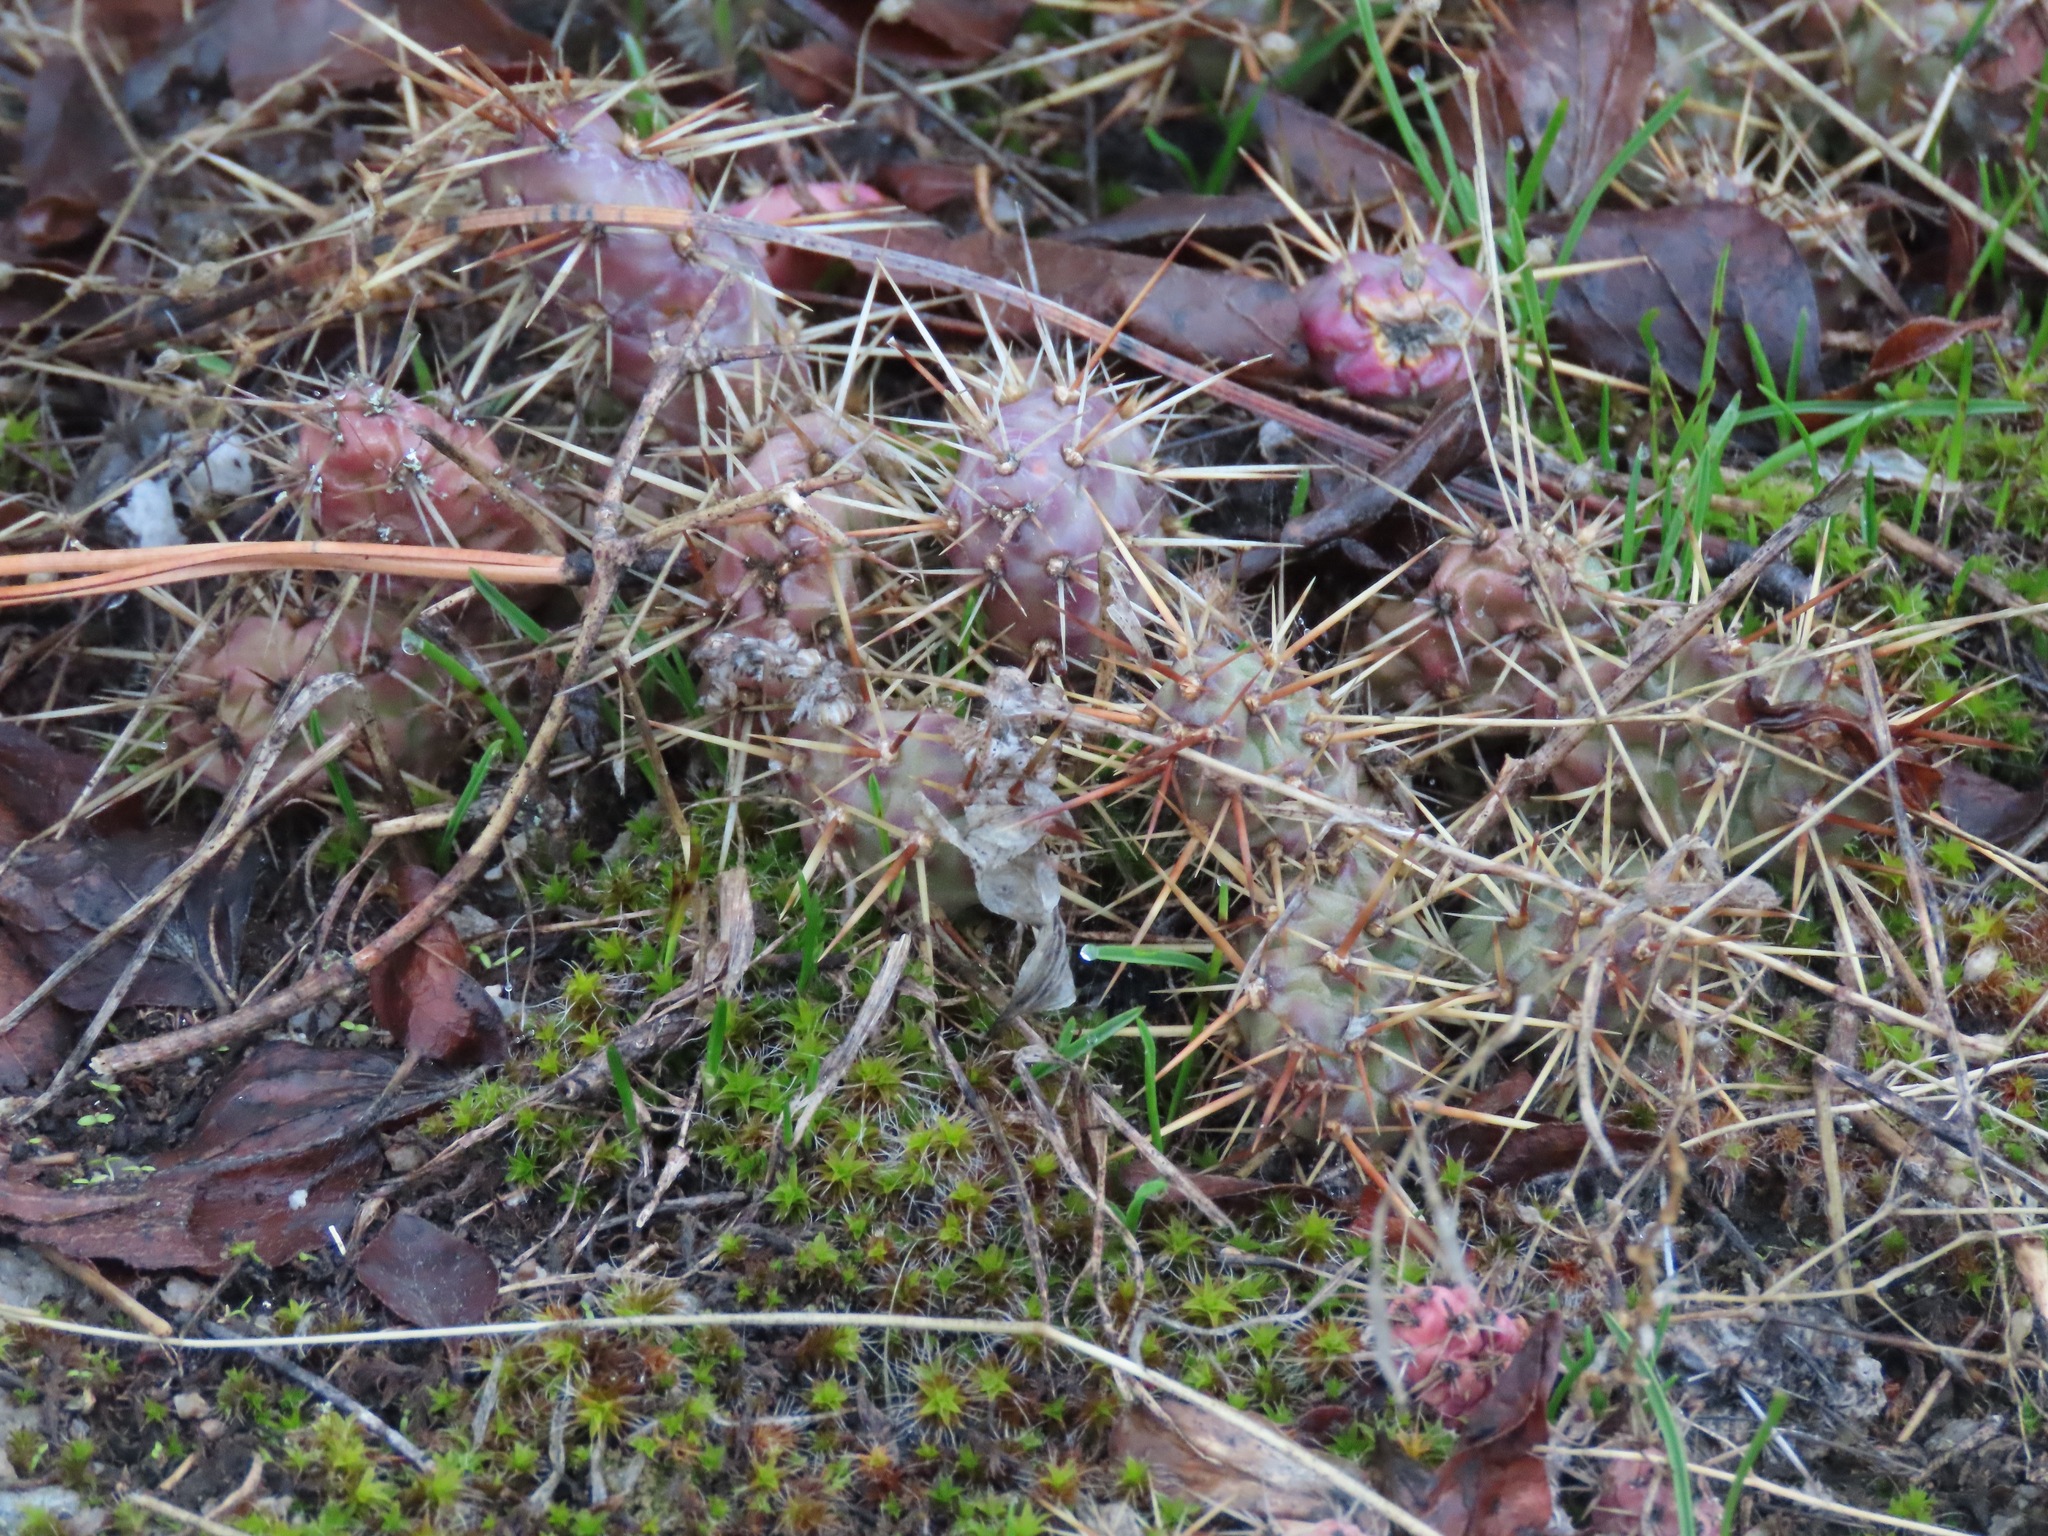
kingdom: Plantae
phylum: Tracheophyta
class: Magnoliopsida
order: Caryophyllales
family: Cactaceae
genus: Opuntia
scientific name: Opuntia fragilis
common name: Brittle cactus
